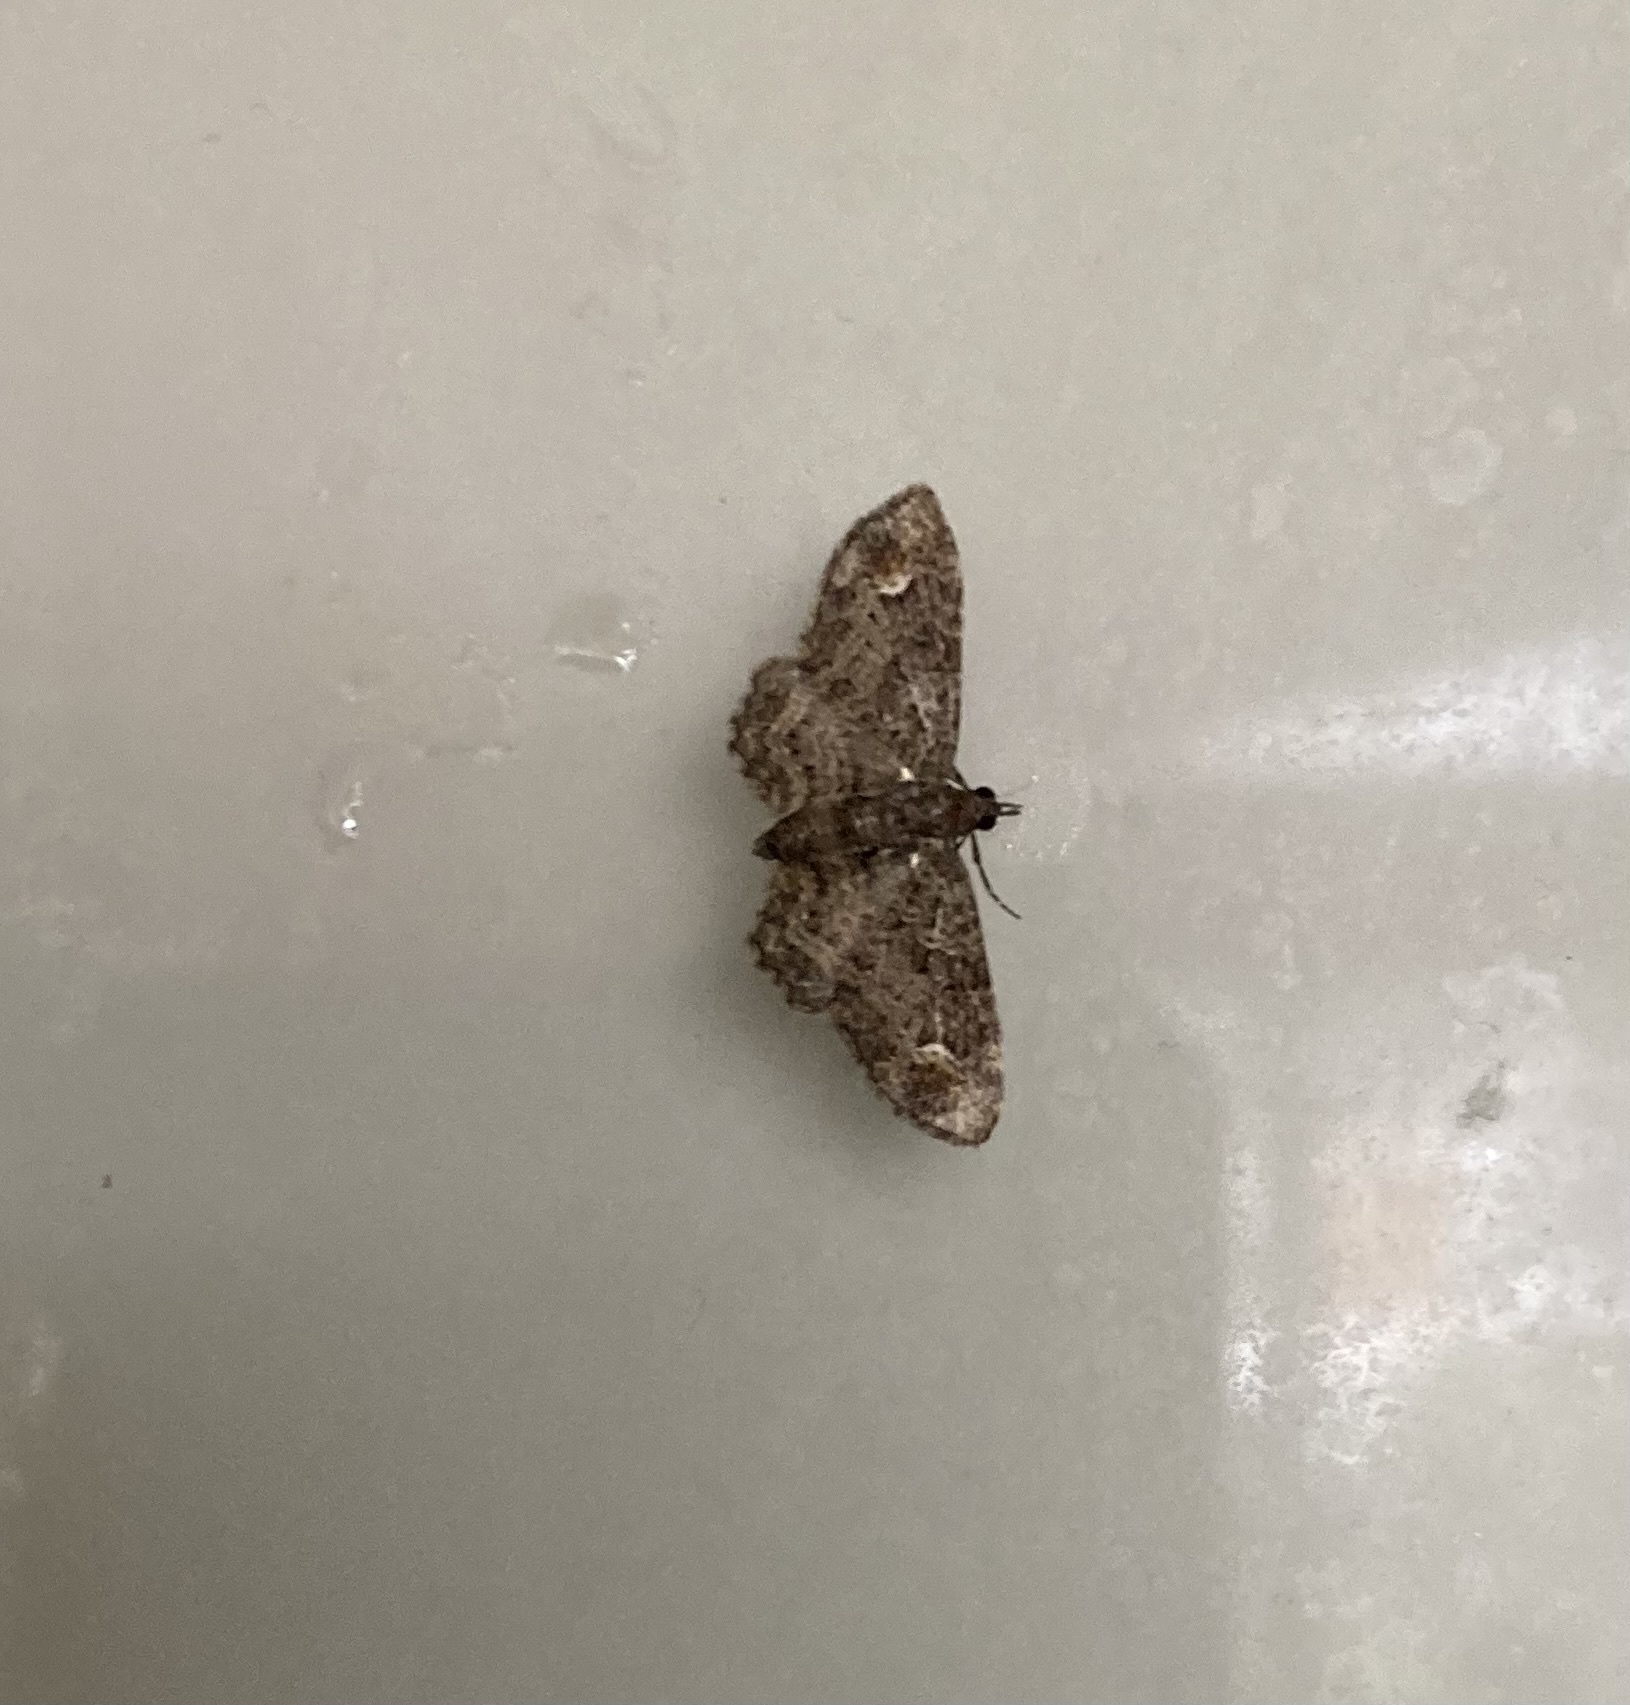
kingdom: Animalia
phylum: Arthropoda
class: Insecta
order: Lepidoptera
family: Geometridae
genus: Pasiphilodes
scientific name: Pasiphilodes testulata
